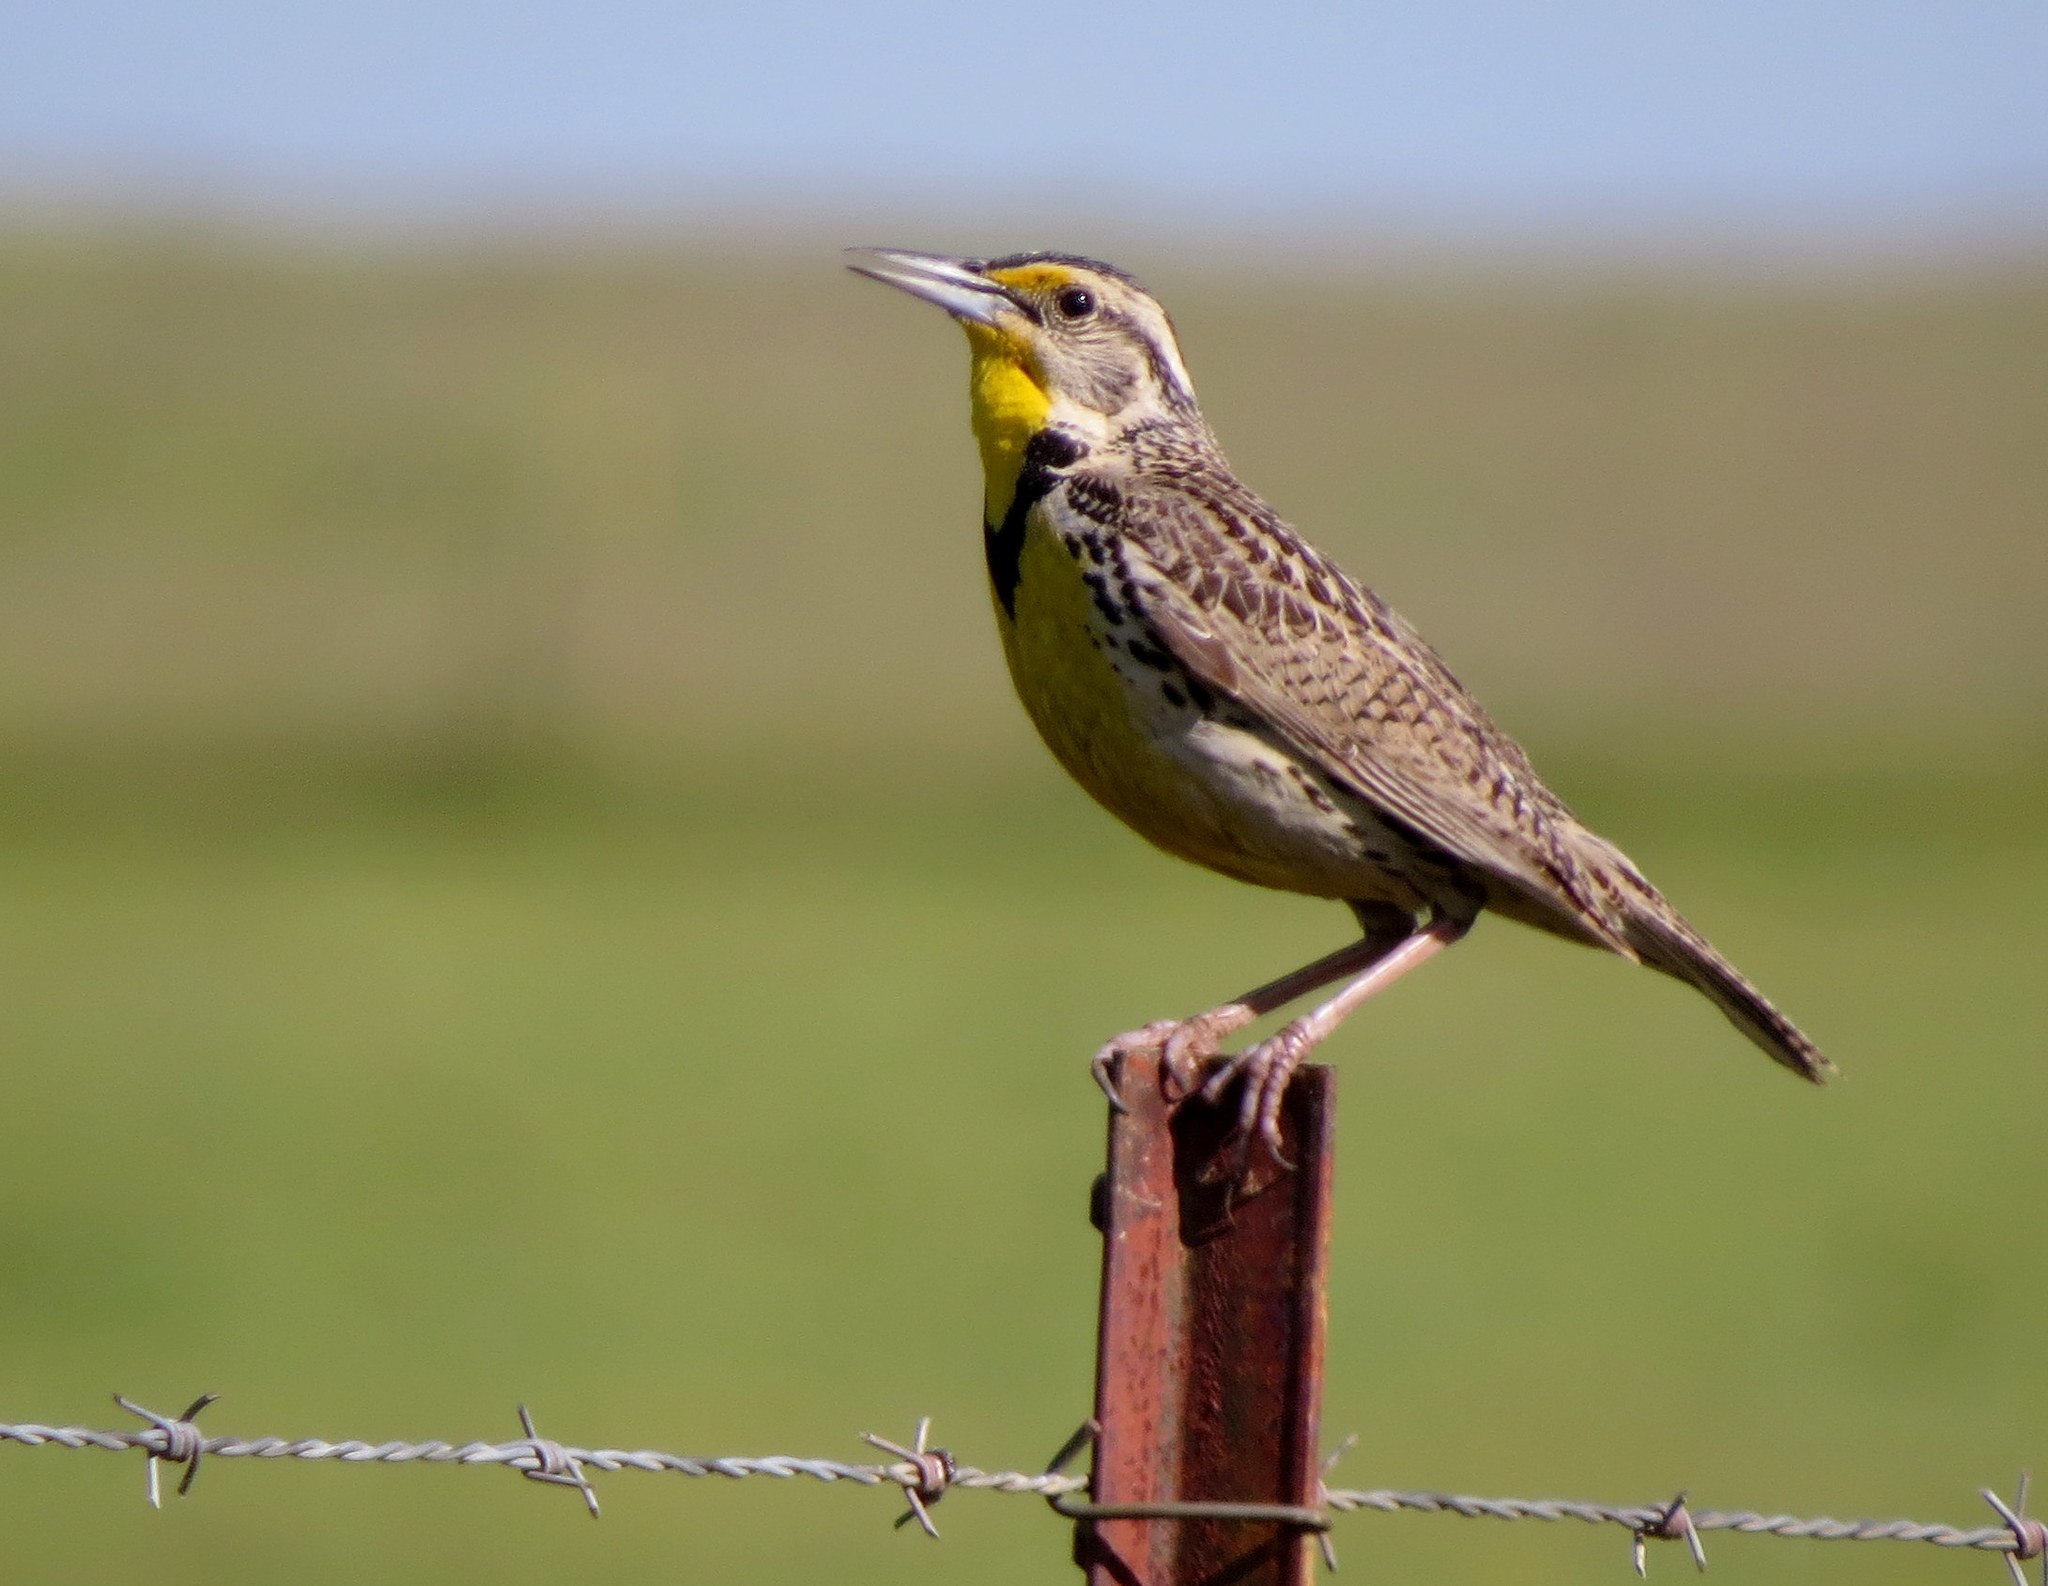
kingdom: Animalia
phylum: Chordata
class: Aves
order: Passeriformes
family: Icteridae
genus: Sturnella
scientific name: Sturnella neglecta
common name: Western meadowlark
